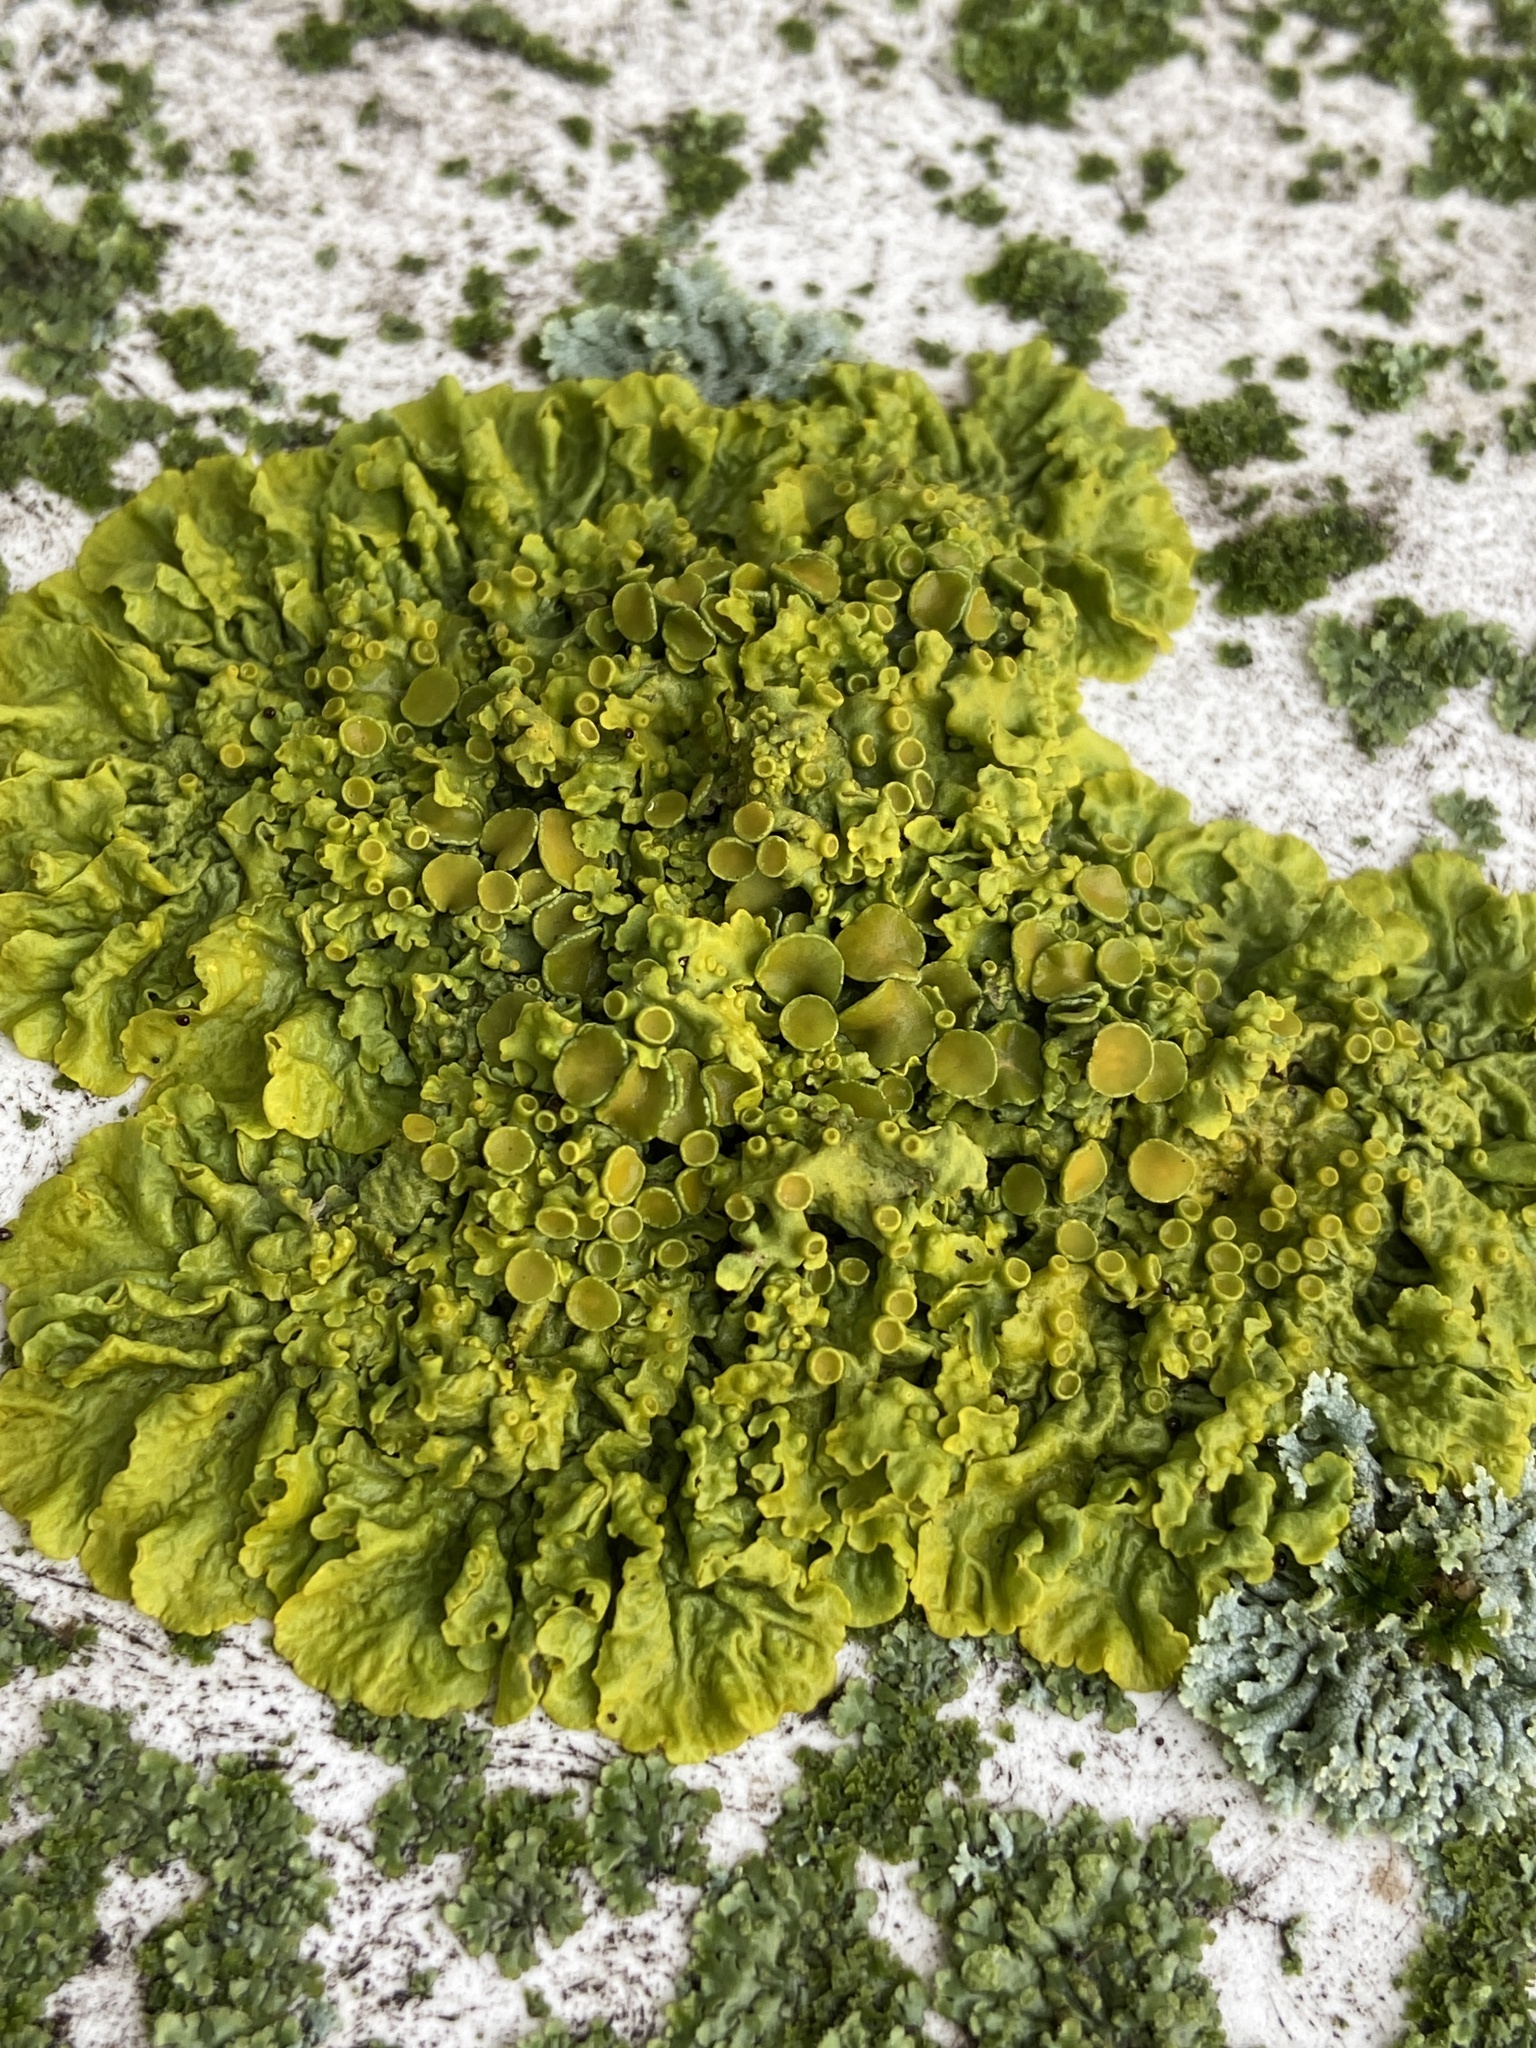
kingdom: Fungi
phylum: Ascomycota
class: Lecanoromycetes
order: Teloschistales
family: Teloschistaceae
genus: Xanthoria
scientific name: Xanthoria parietina
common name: Common orange lichen
